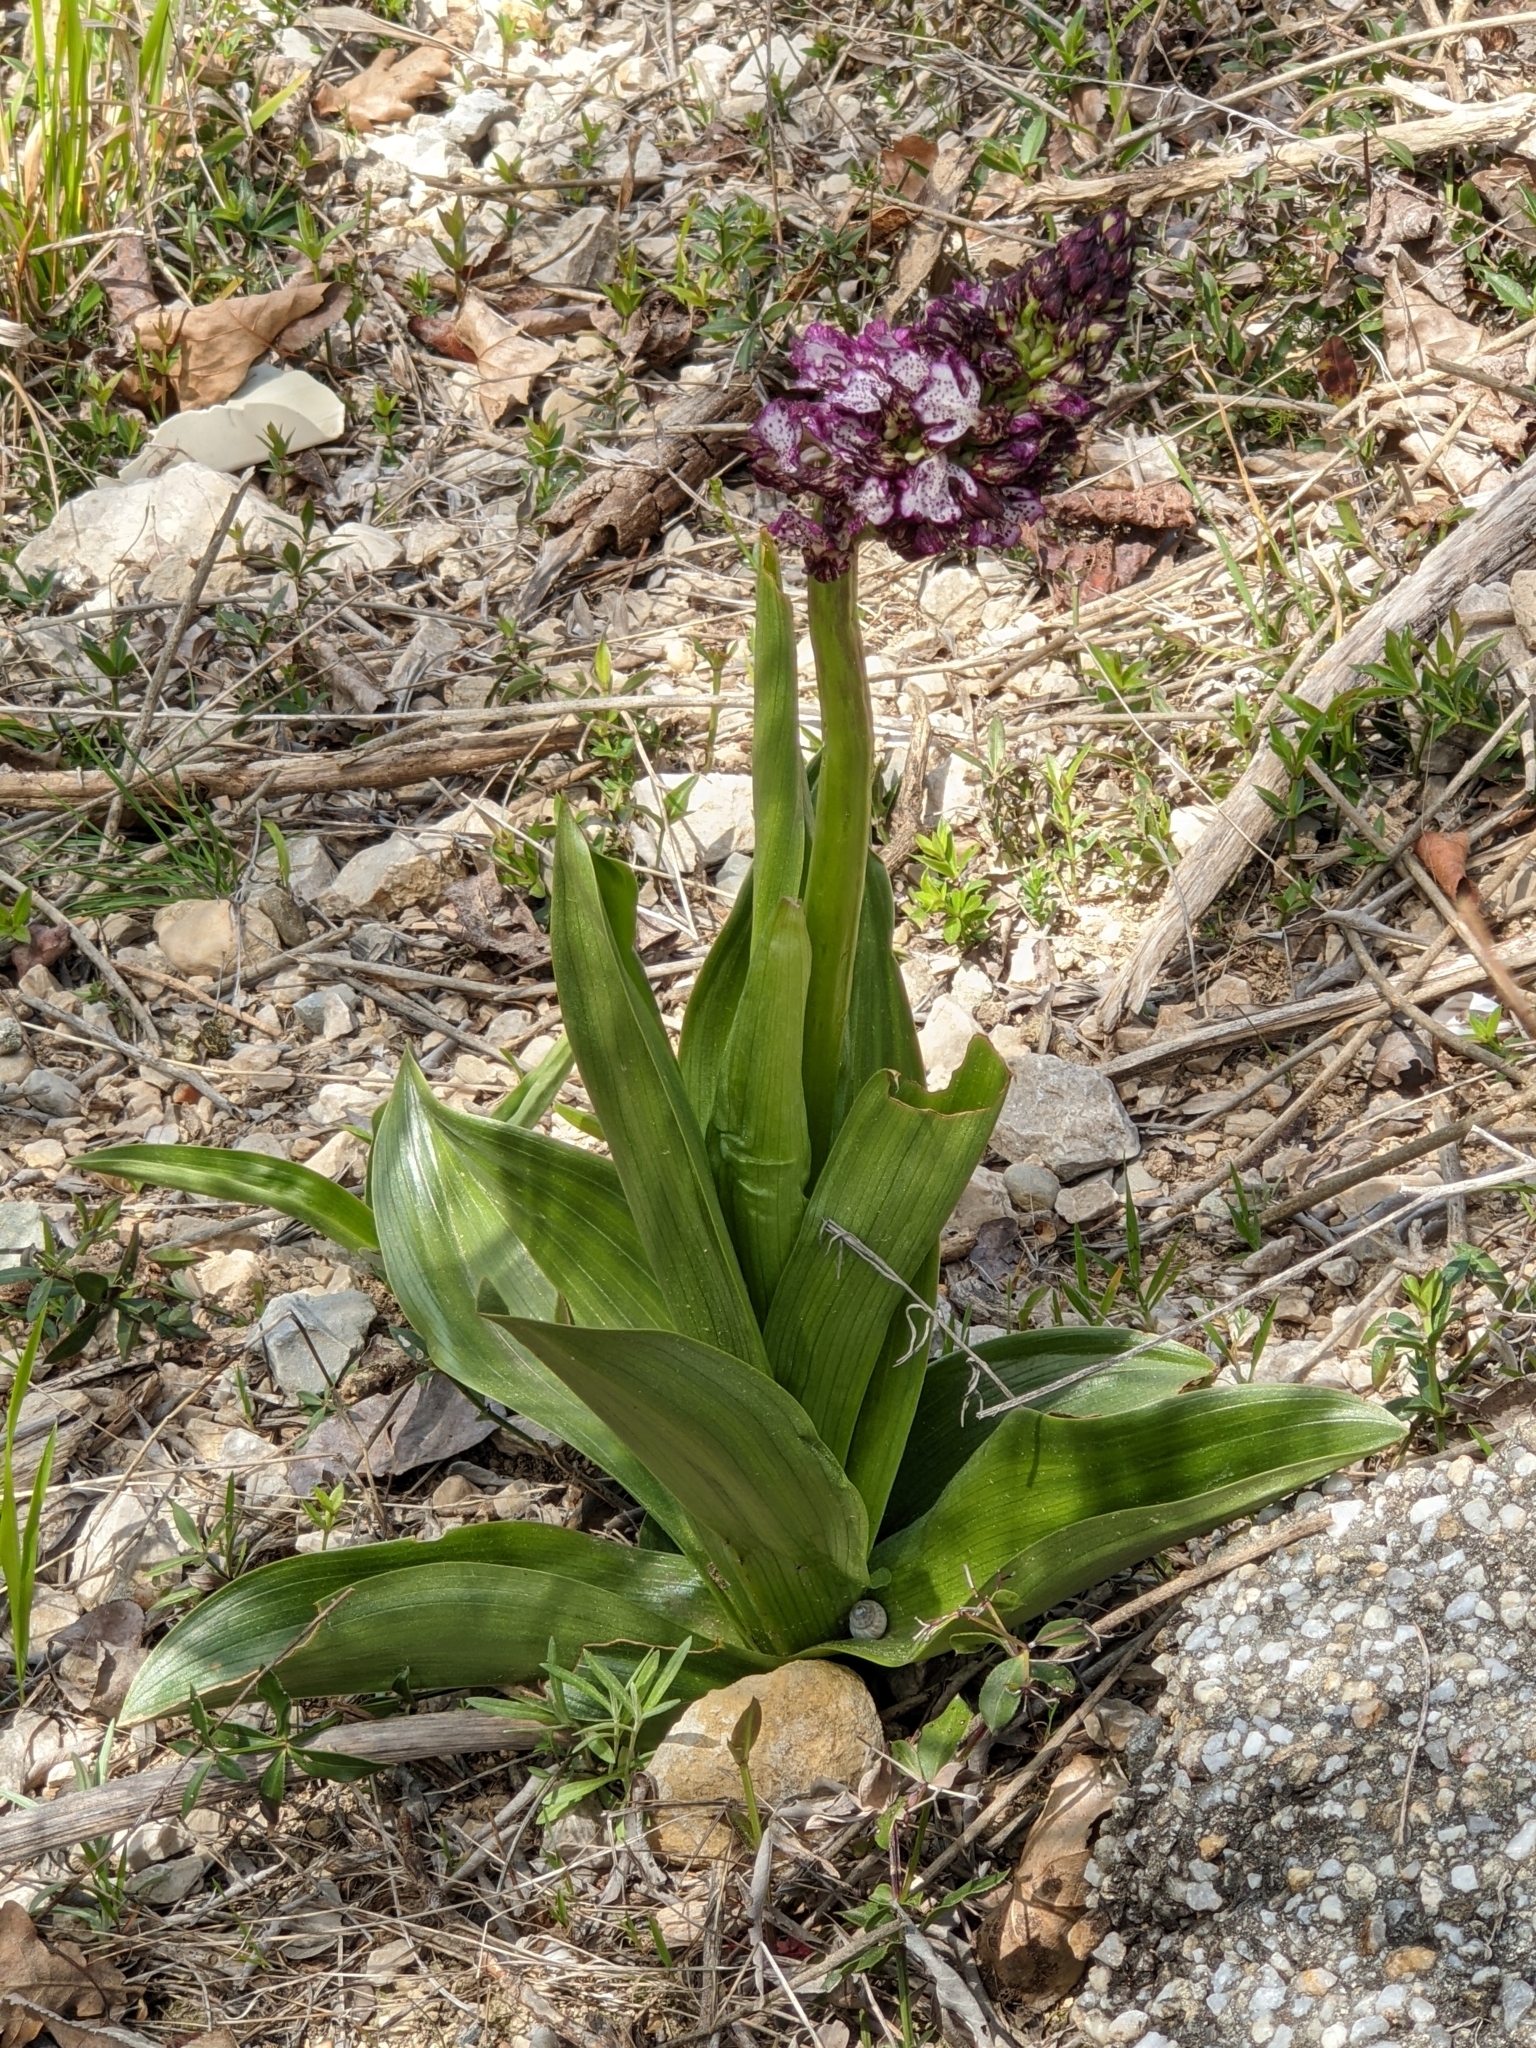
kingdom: Plantae
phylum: Tracheophyta
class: Liliopsida
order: Asparagales
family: Orchidaceae
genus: Orchis
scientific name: Orchis purpurea
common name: Lady orchid
